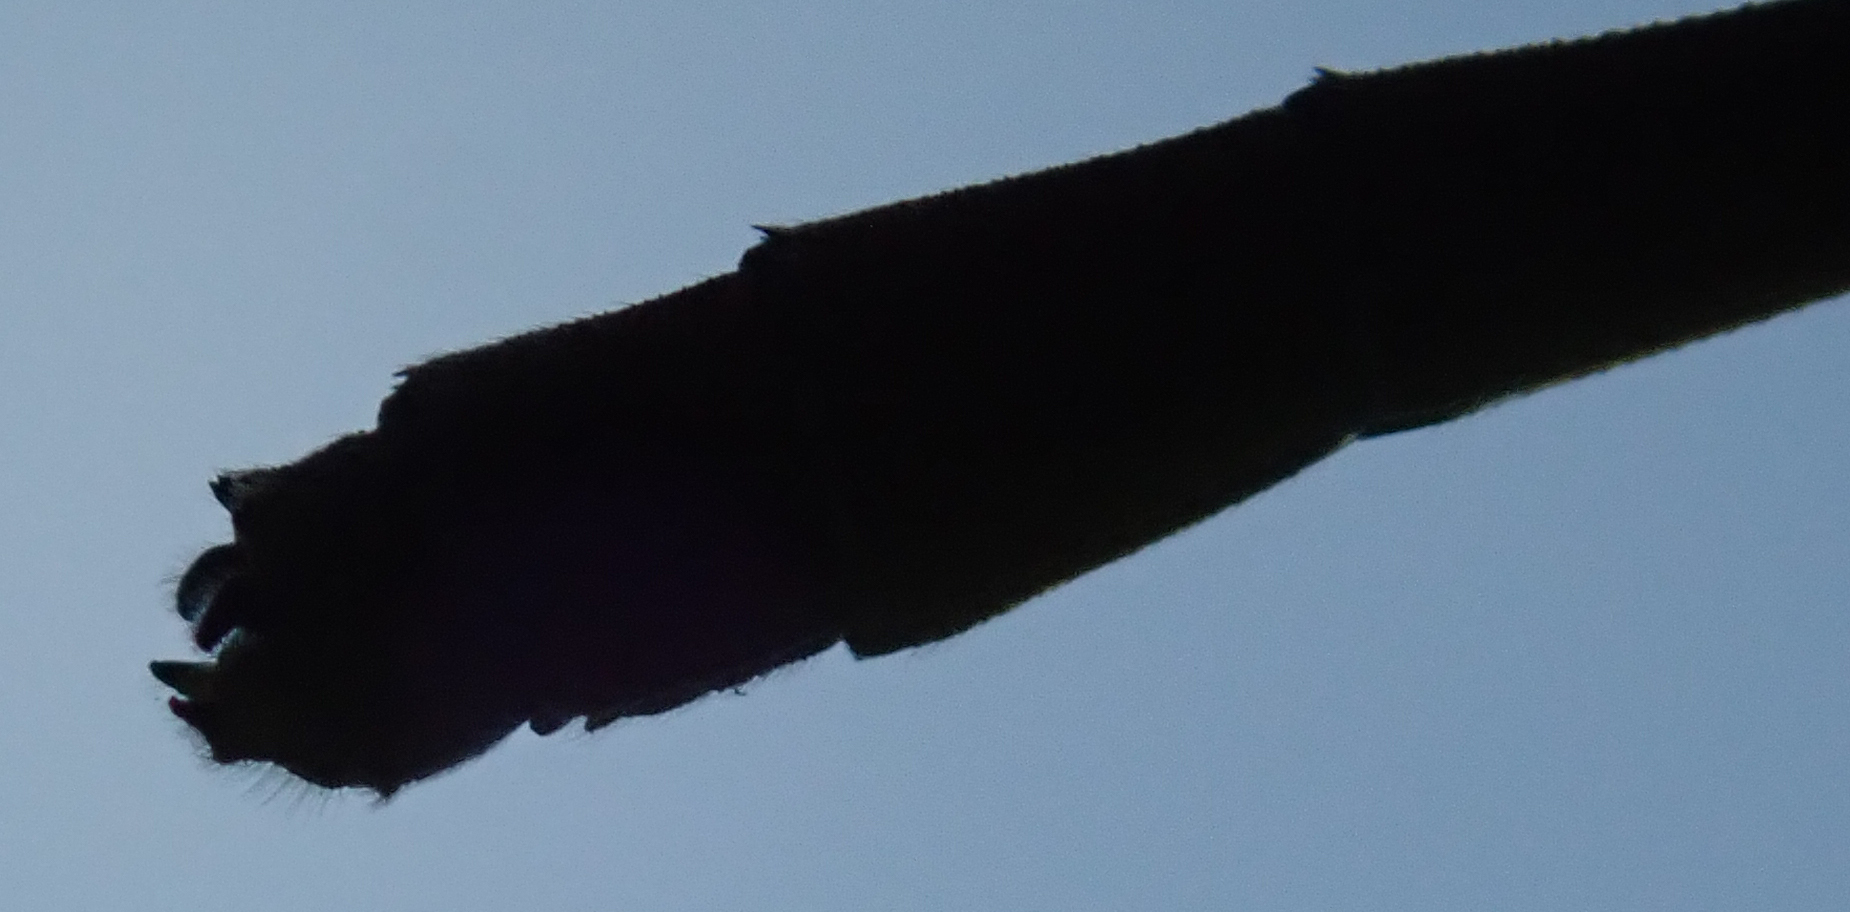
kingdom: Animalia
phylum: Arthropoda
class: Insecta
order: Odonata
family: Coenagrionidae
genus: Ceriagrion
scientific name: Ceriagrion glabrum
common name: Common pond damsel
